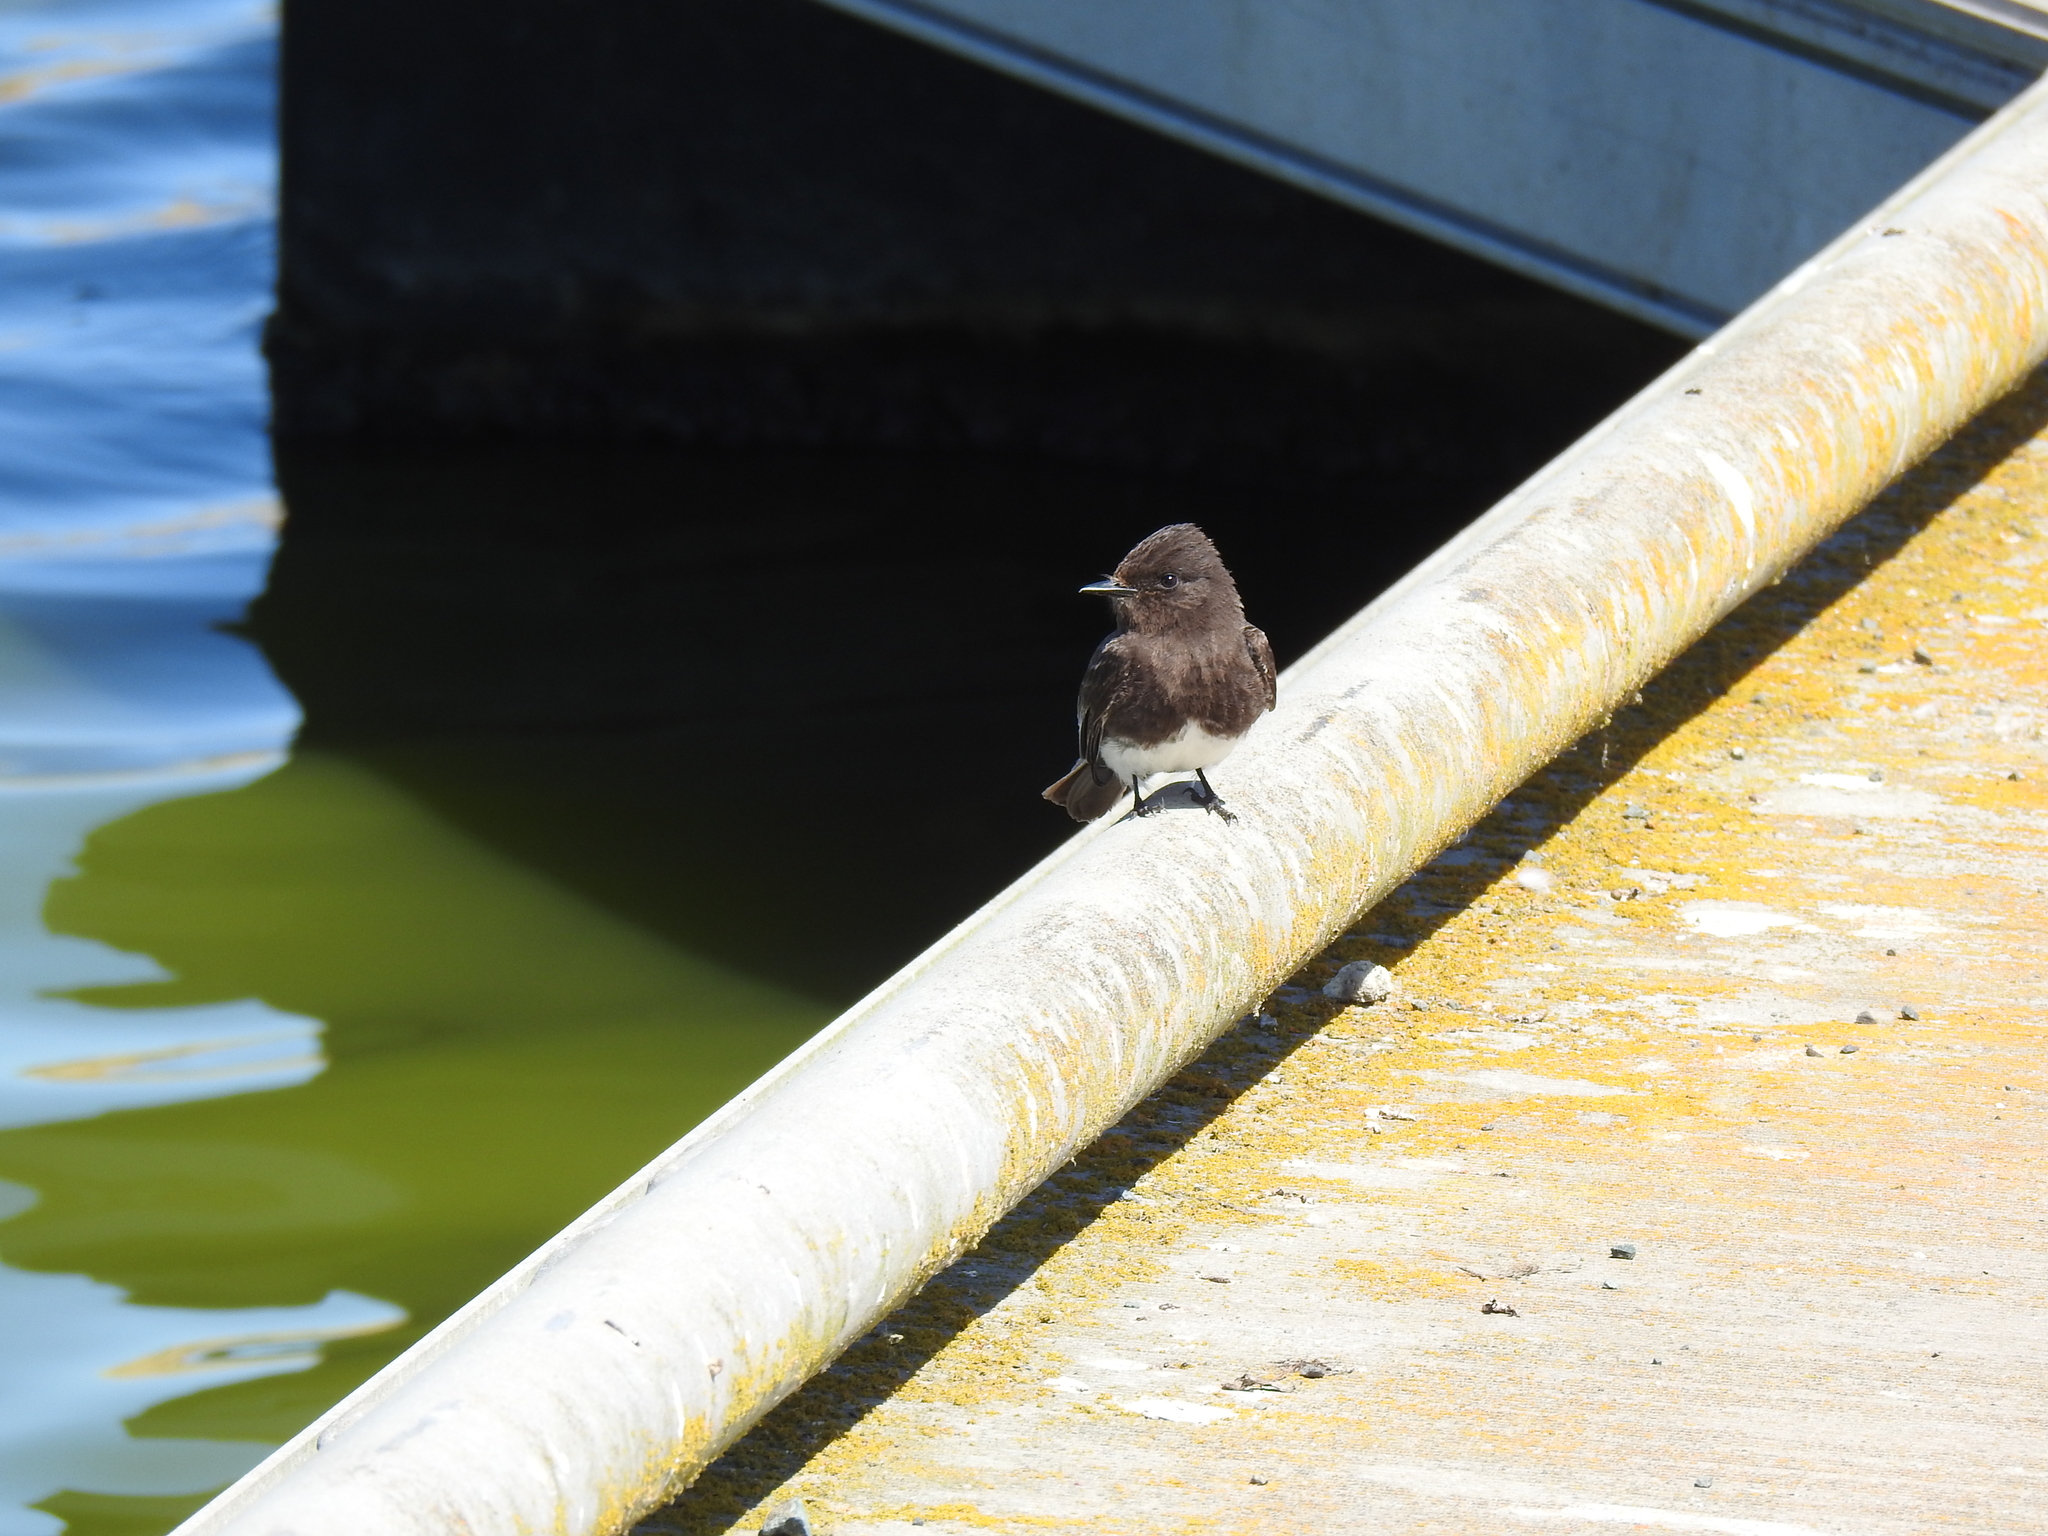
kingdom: Animalia
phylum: Chordata
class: Aves
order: Passeriformes
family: Tyrannidae
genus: Sayornis
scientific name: Sayornis nigricans
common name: Black phoebe
